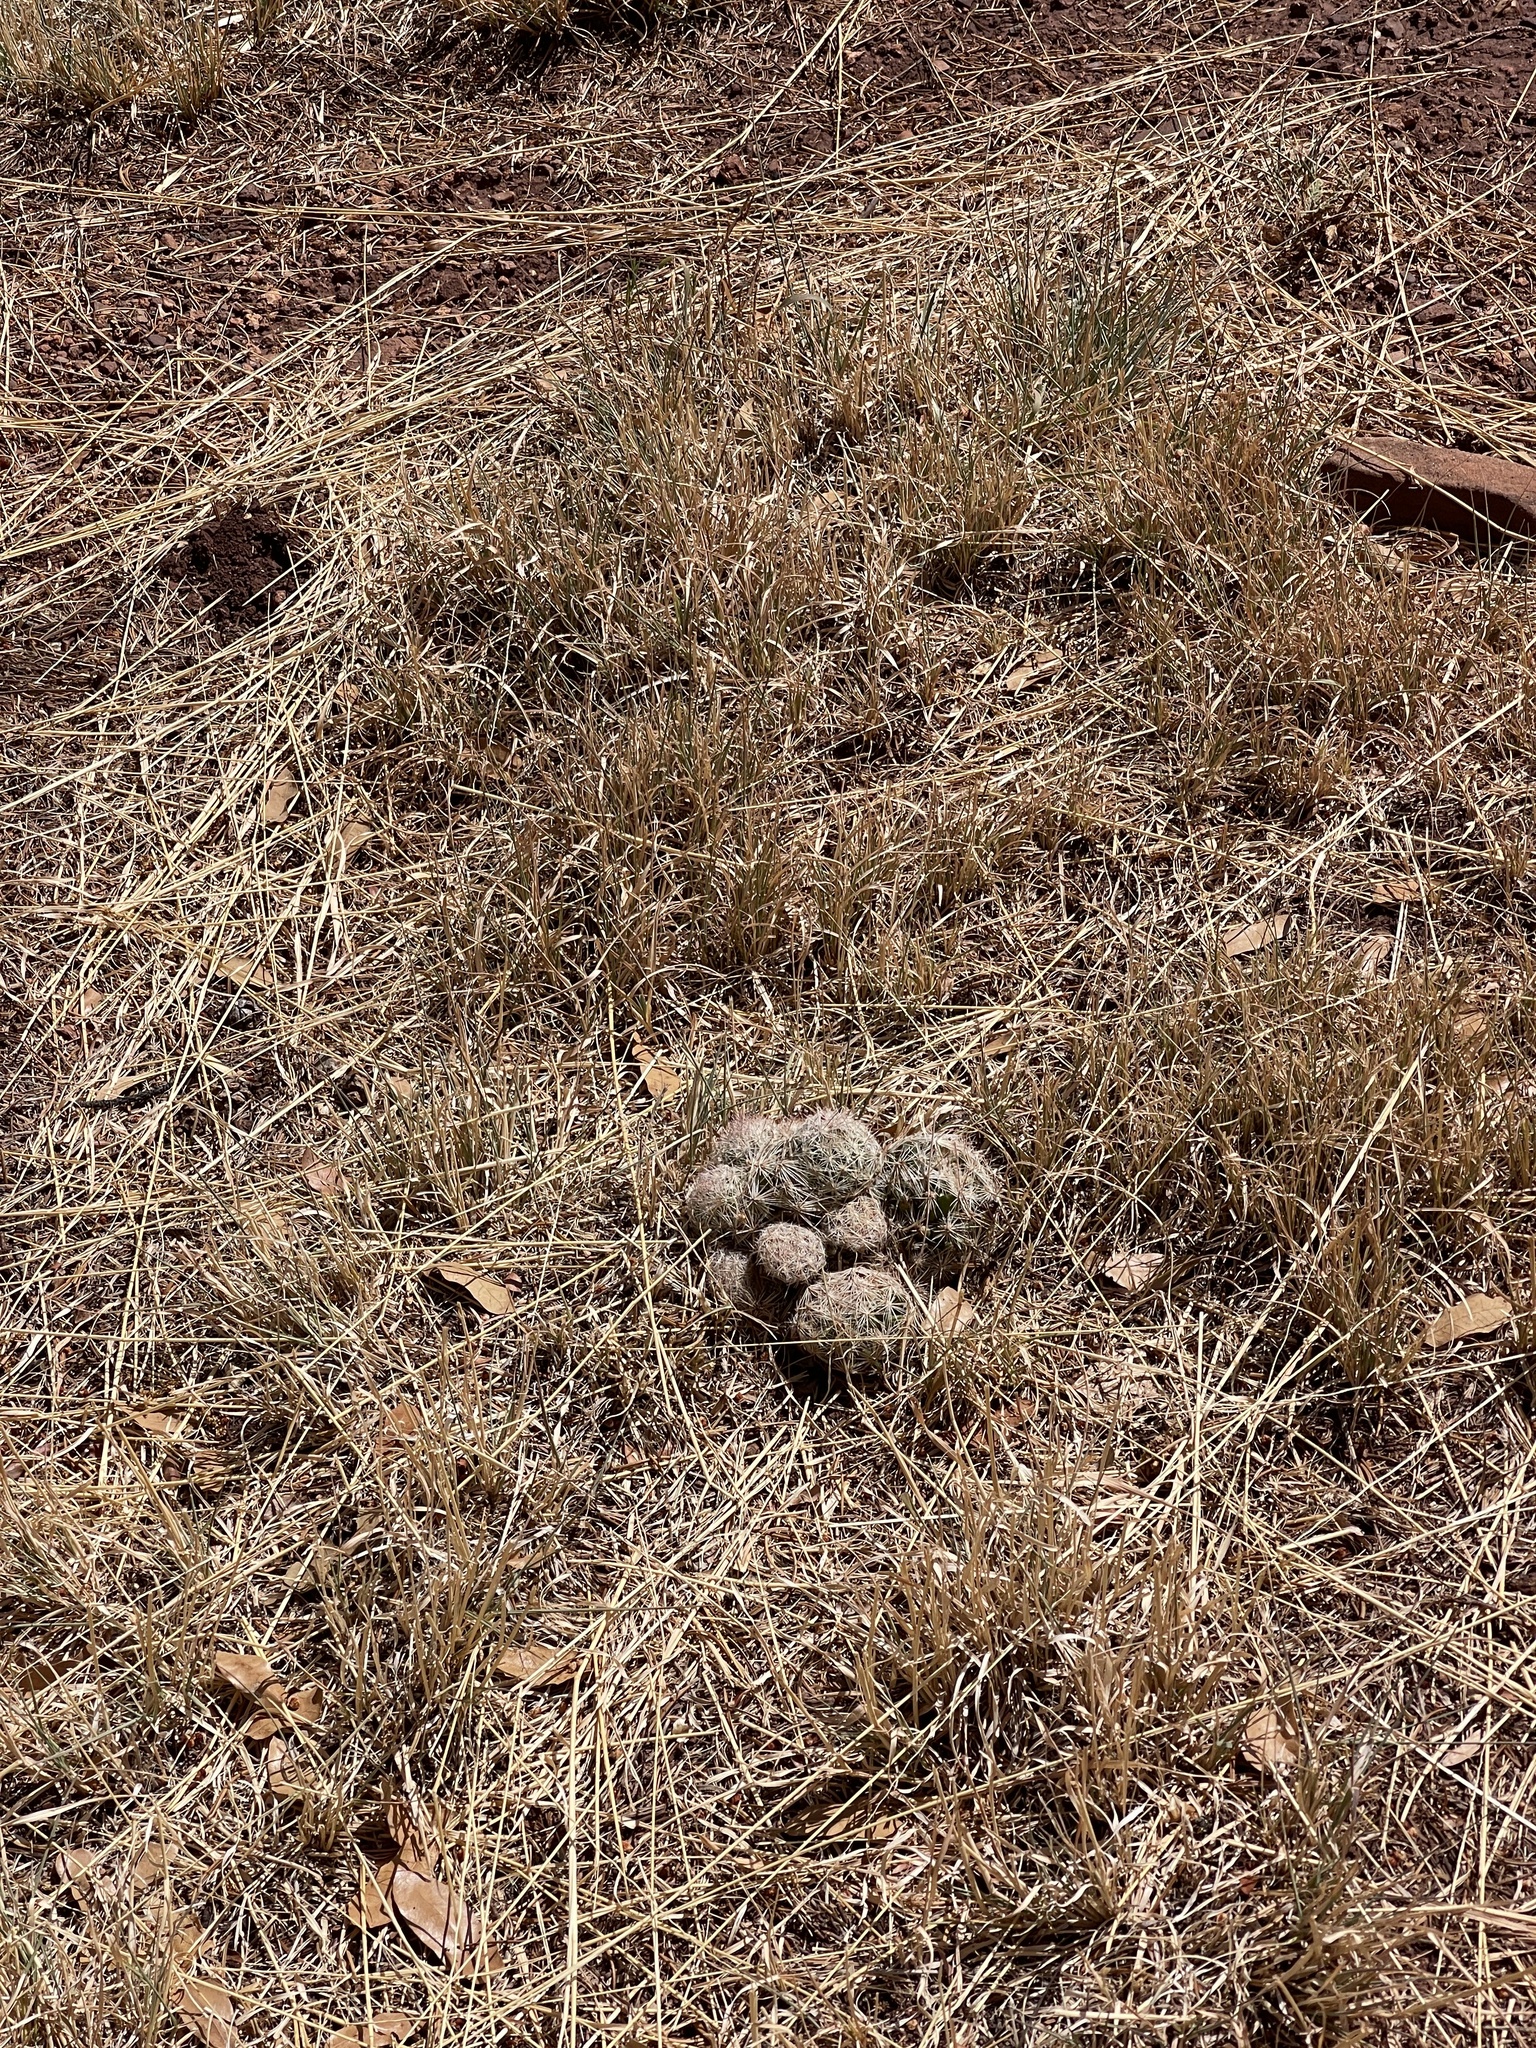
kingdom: Plantae
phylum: Tracheophyta
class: Magnoliopsida
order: Caryophyllales
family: Cactaceae
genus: Pelecyphora
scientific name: Pelecyphora vivipara
